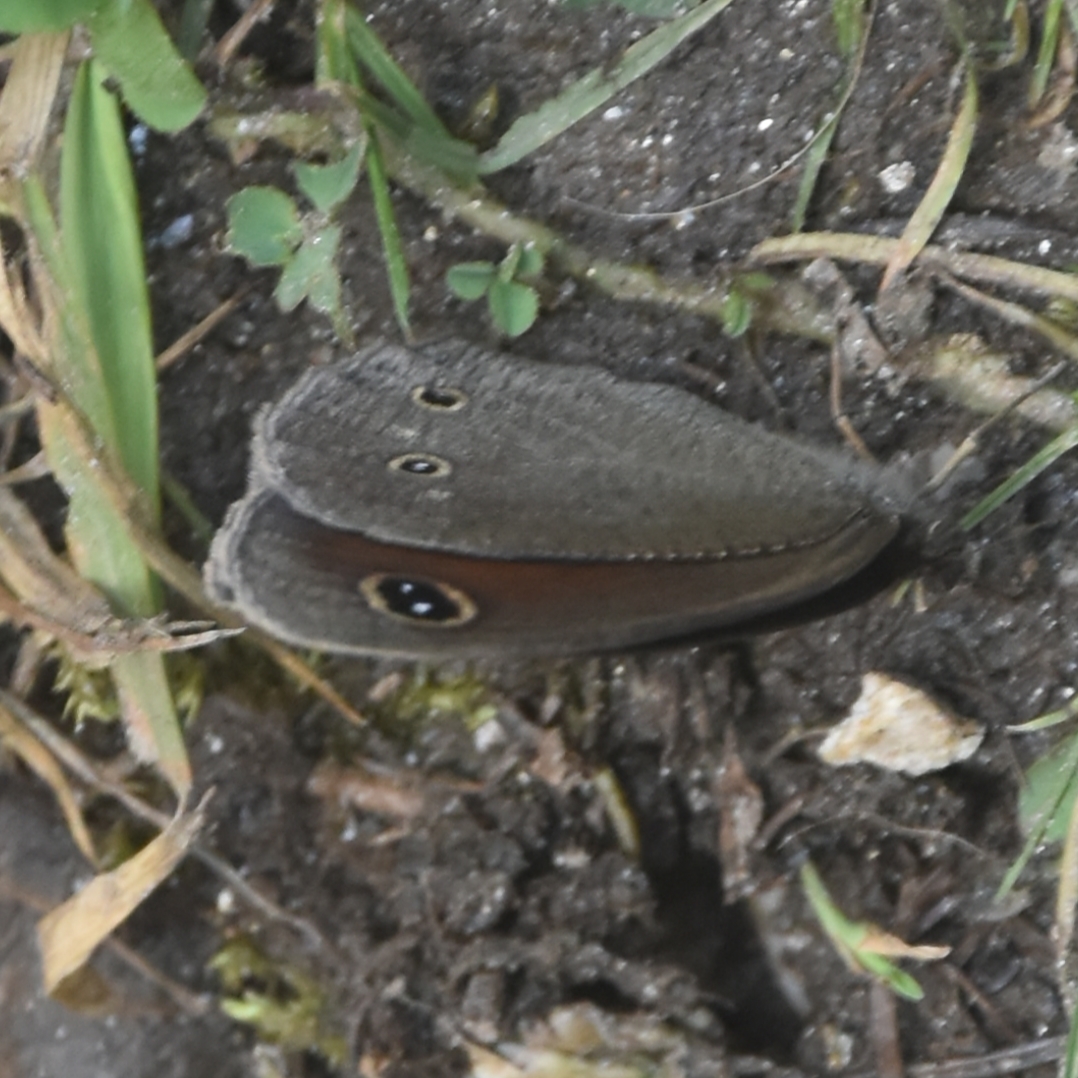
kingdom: Animalia
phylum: Arthropoda
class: Insecta
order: Lepidoptera
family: Nymphalidae
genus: Callerebia
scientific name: Callerebia nirmala
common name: Common argus
